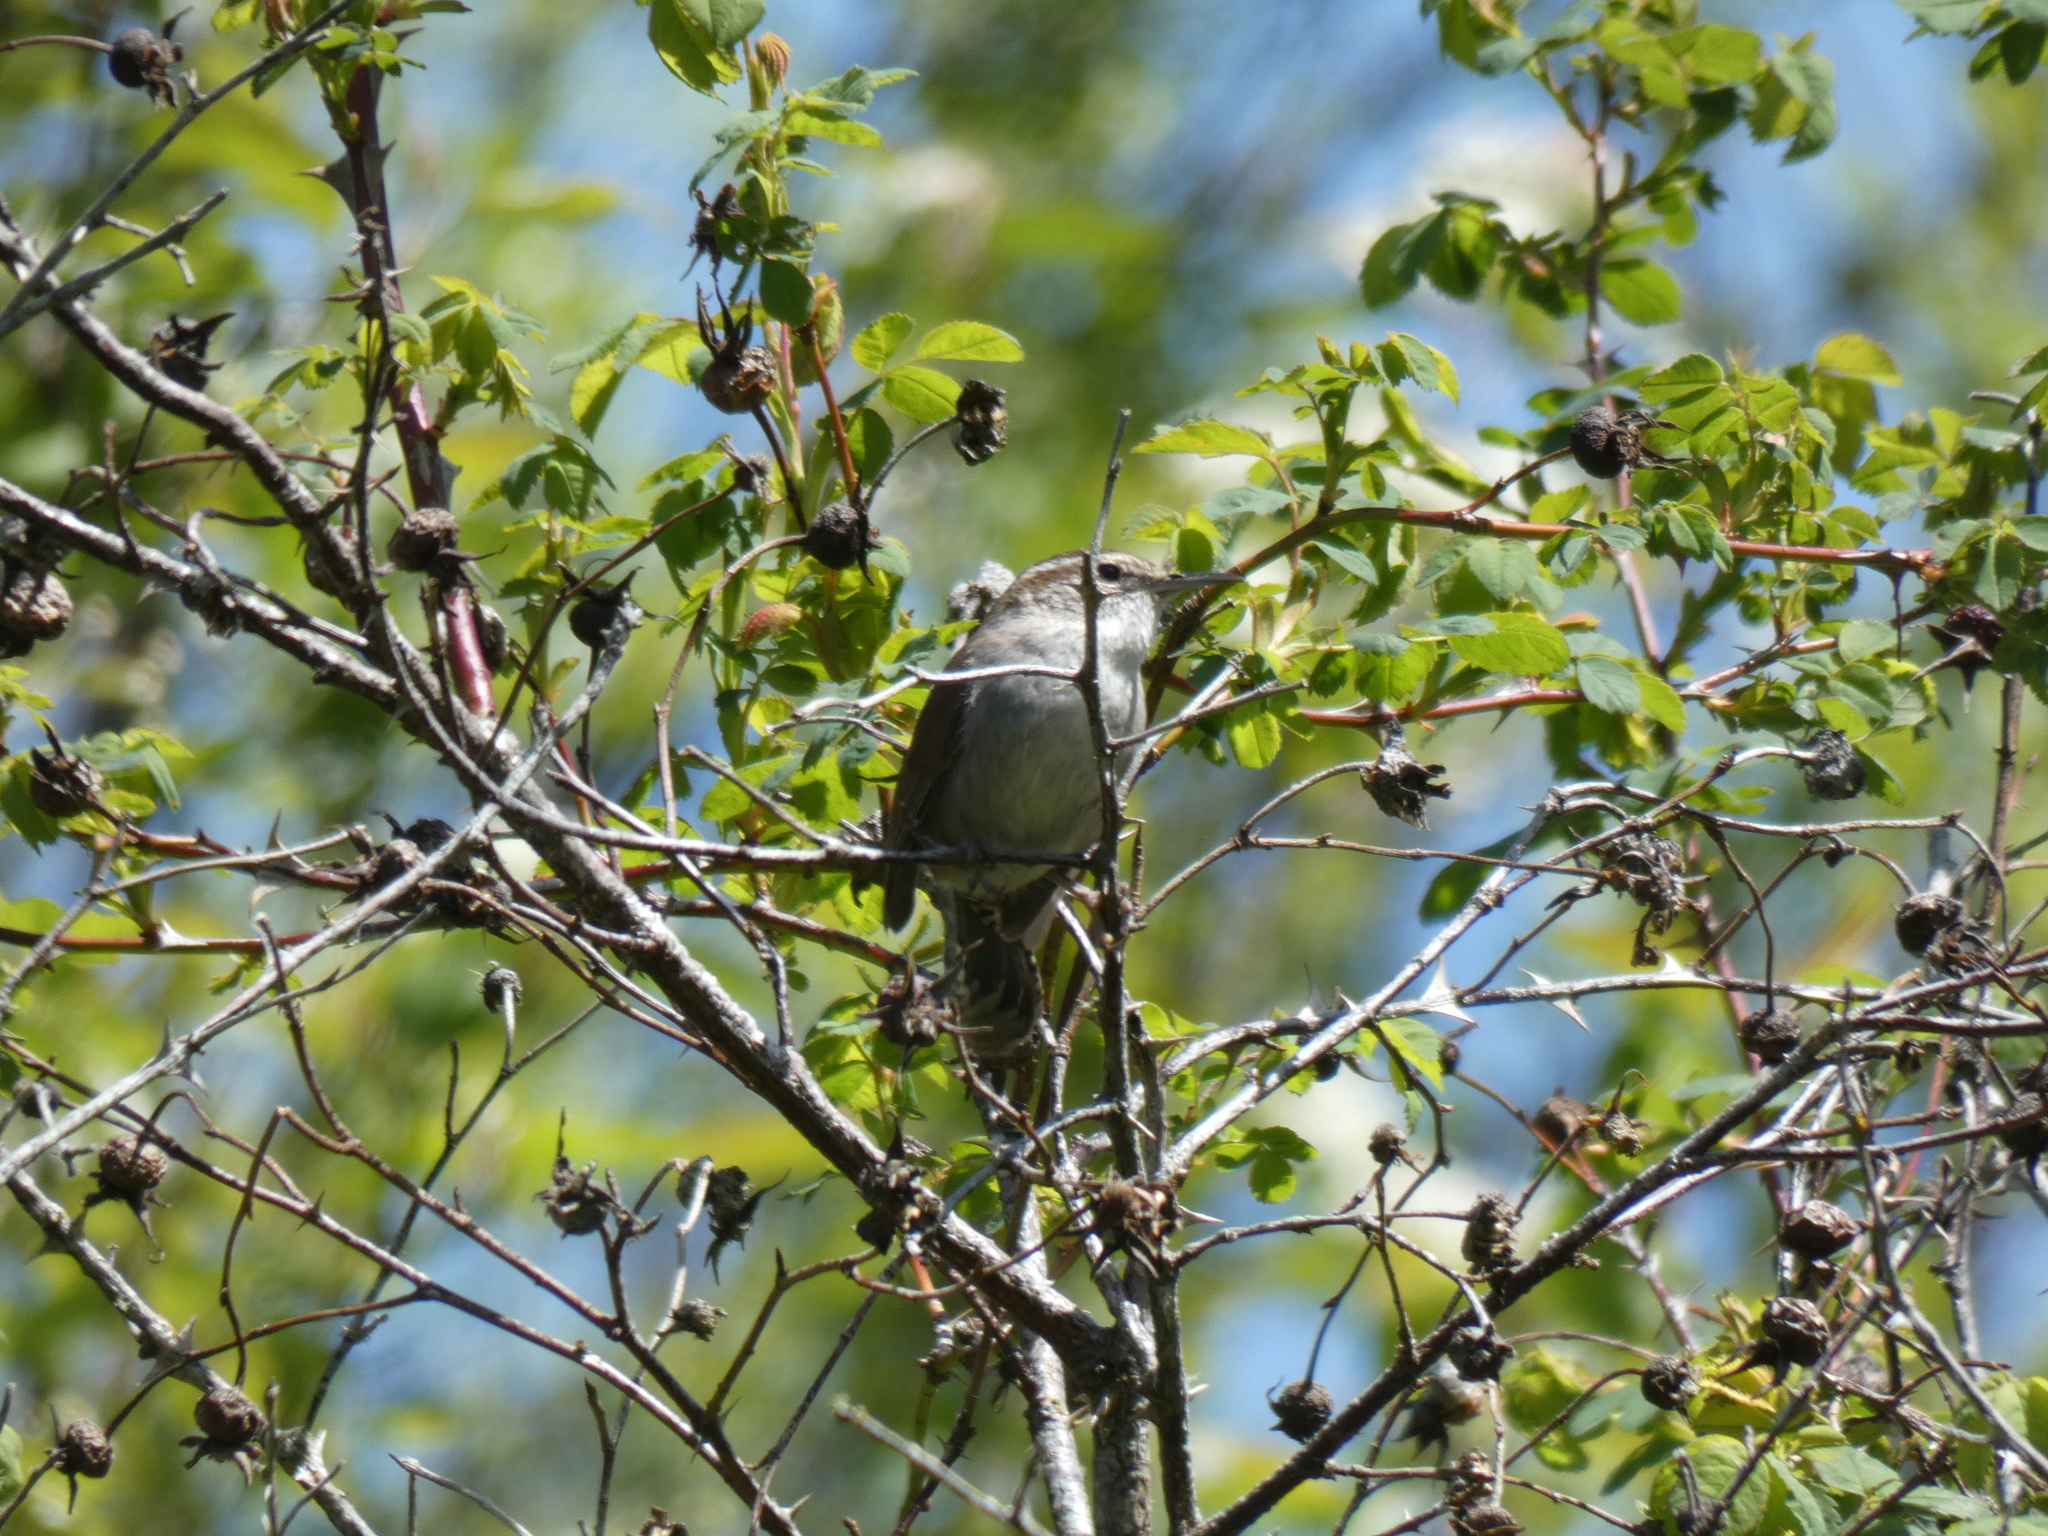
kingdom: Animalia
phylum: Chordata
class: Aves
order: Passeriformes
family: Troglodytidae
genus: Thryomanes
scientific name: Thryomanes bewickii
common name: Bewick's wren
